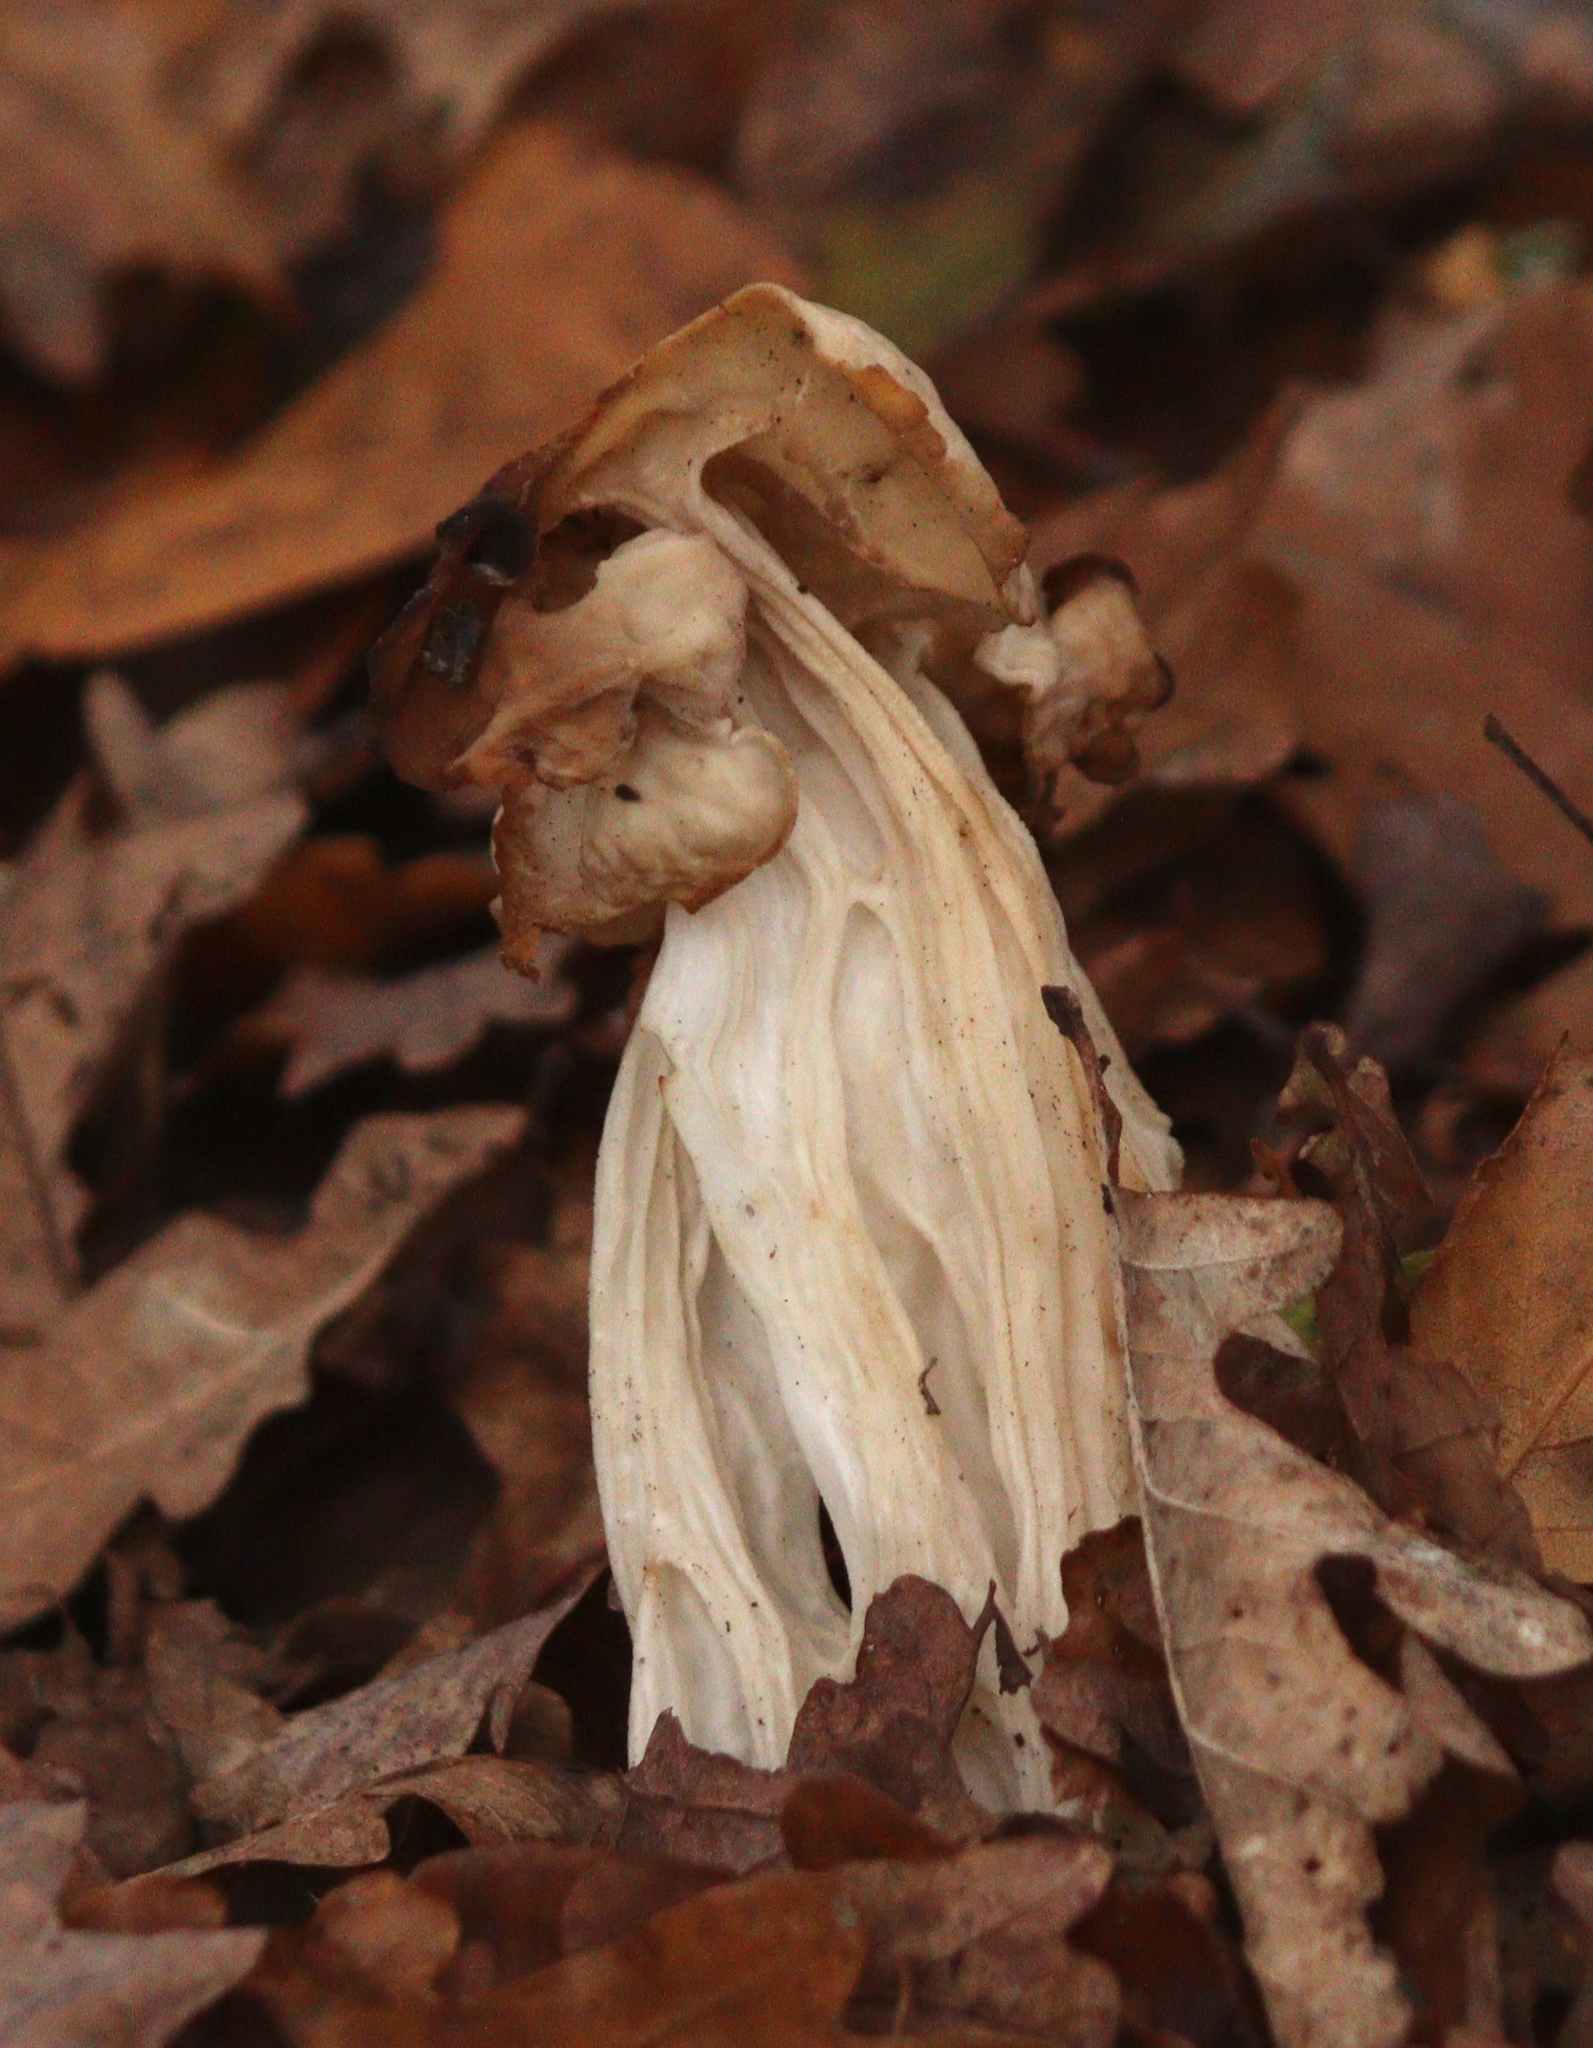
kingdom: Fungi
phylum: Ascomycota
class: Pezizomycetes
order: Pezizales
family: Helvellaceae
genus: Helvella
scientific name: Helvella crispa
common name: White saddle
